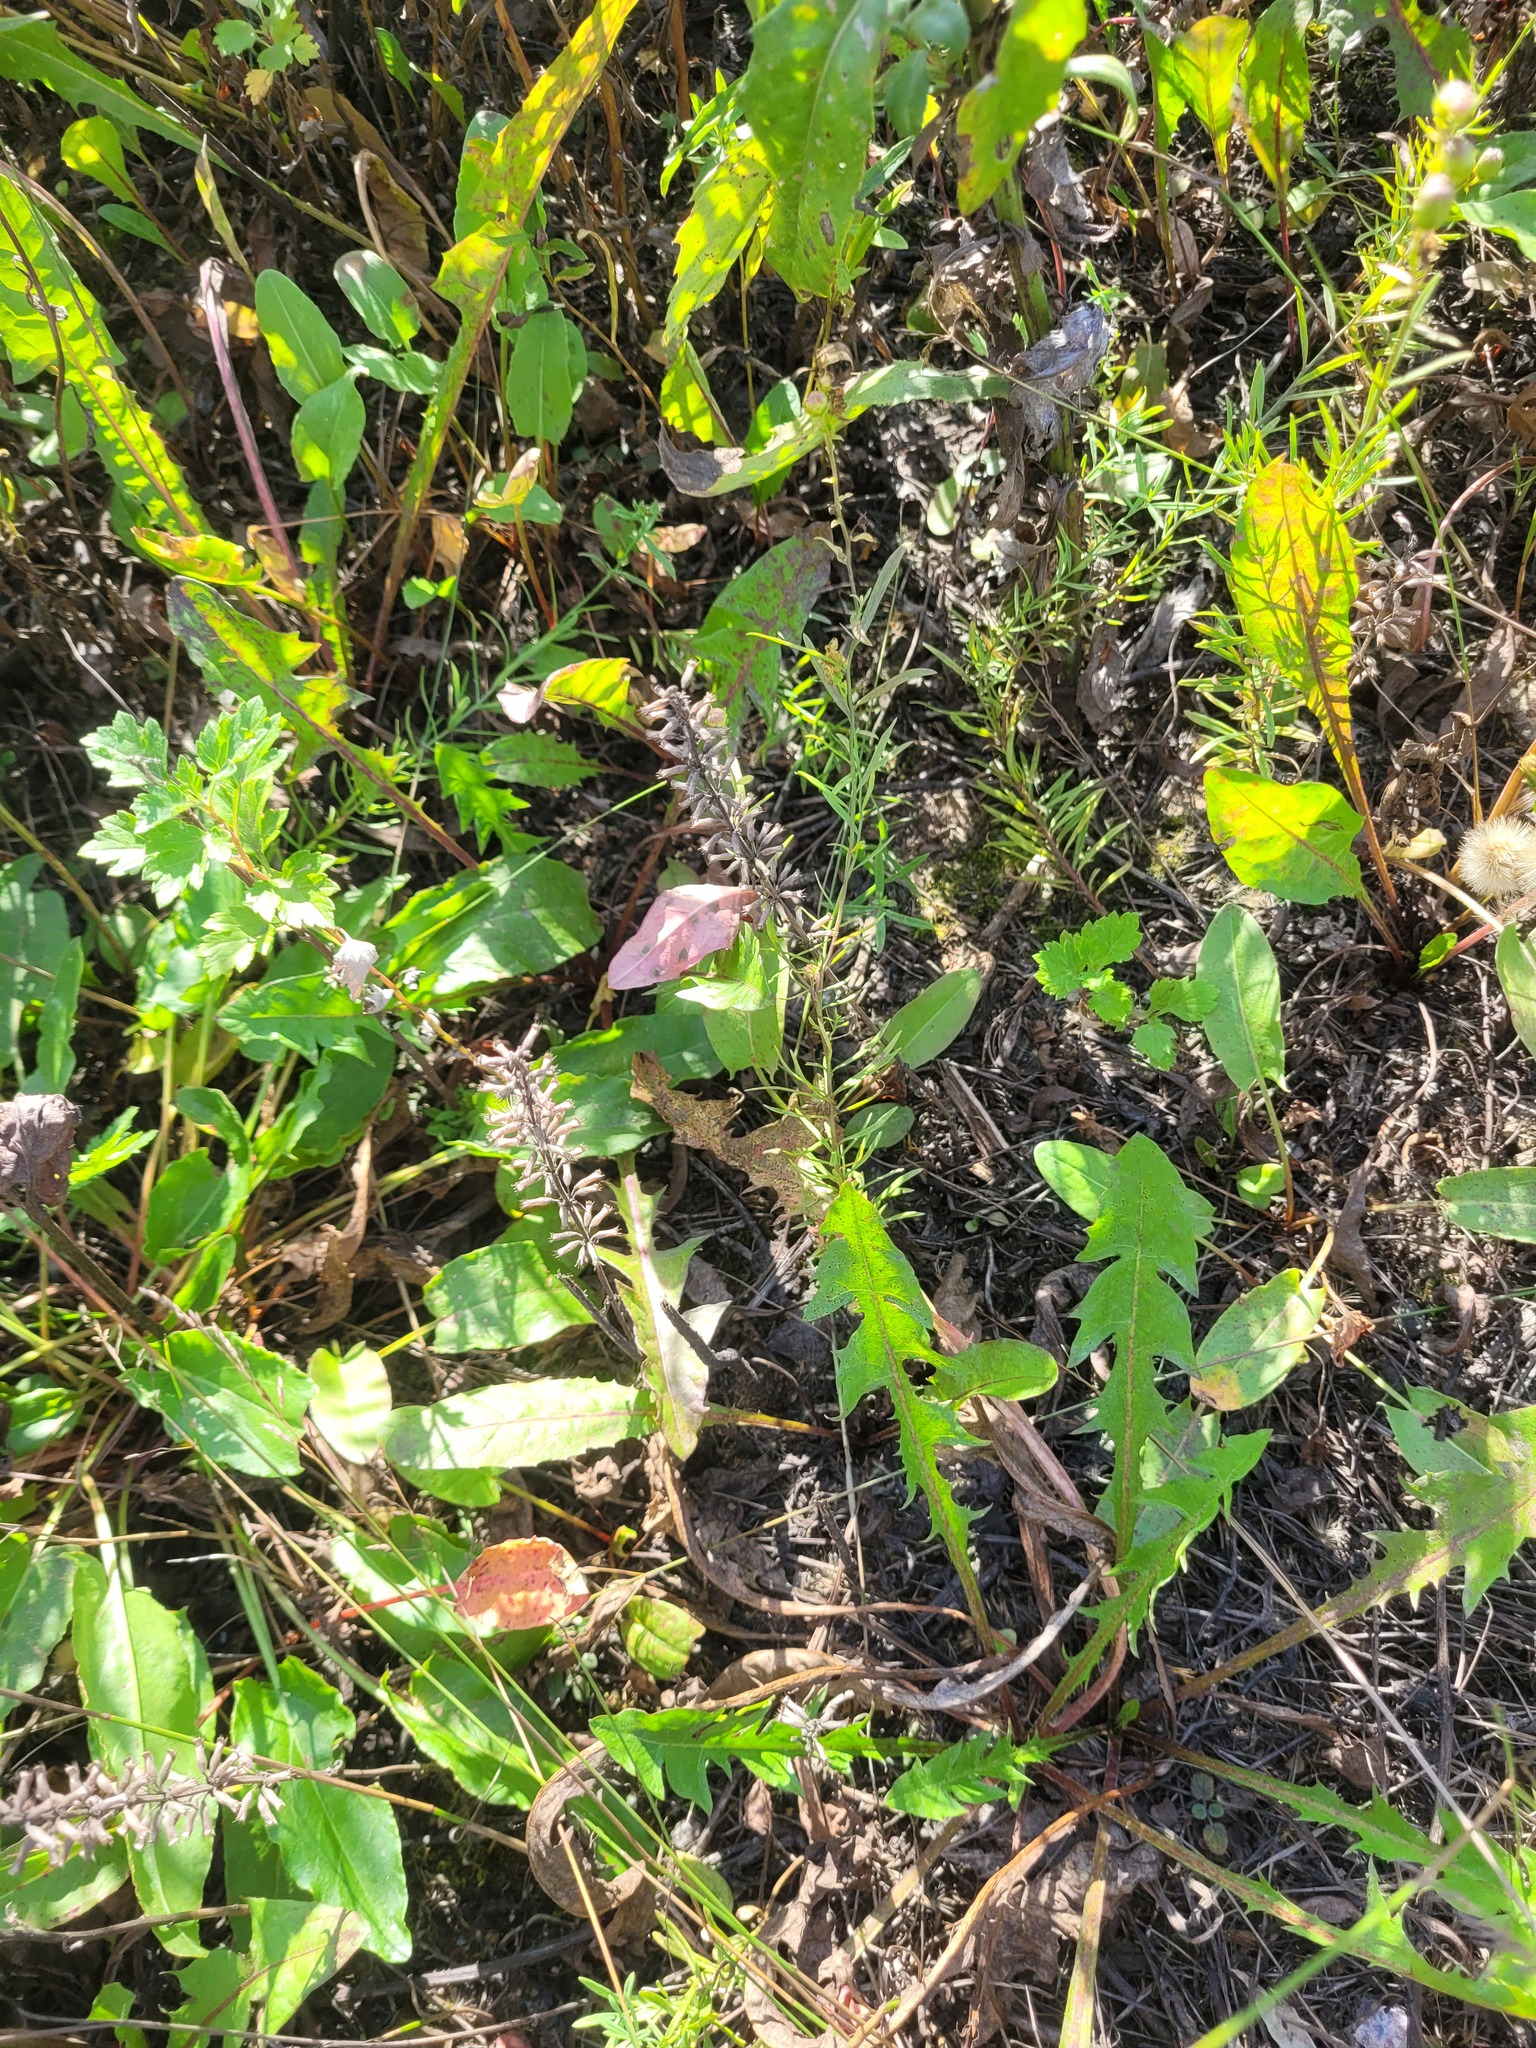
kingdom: Plantae
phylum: Tracheophyta
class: Magnoliopsida
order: Lamiales
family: Lamiaceae
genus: Dracocephalum
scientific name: Dracocephalum thymiflorum
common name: Thymeleaf dragonhead
